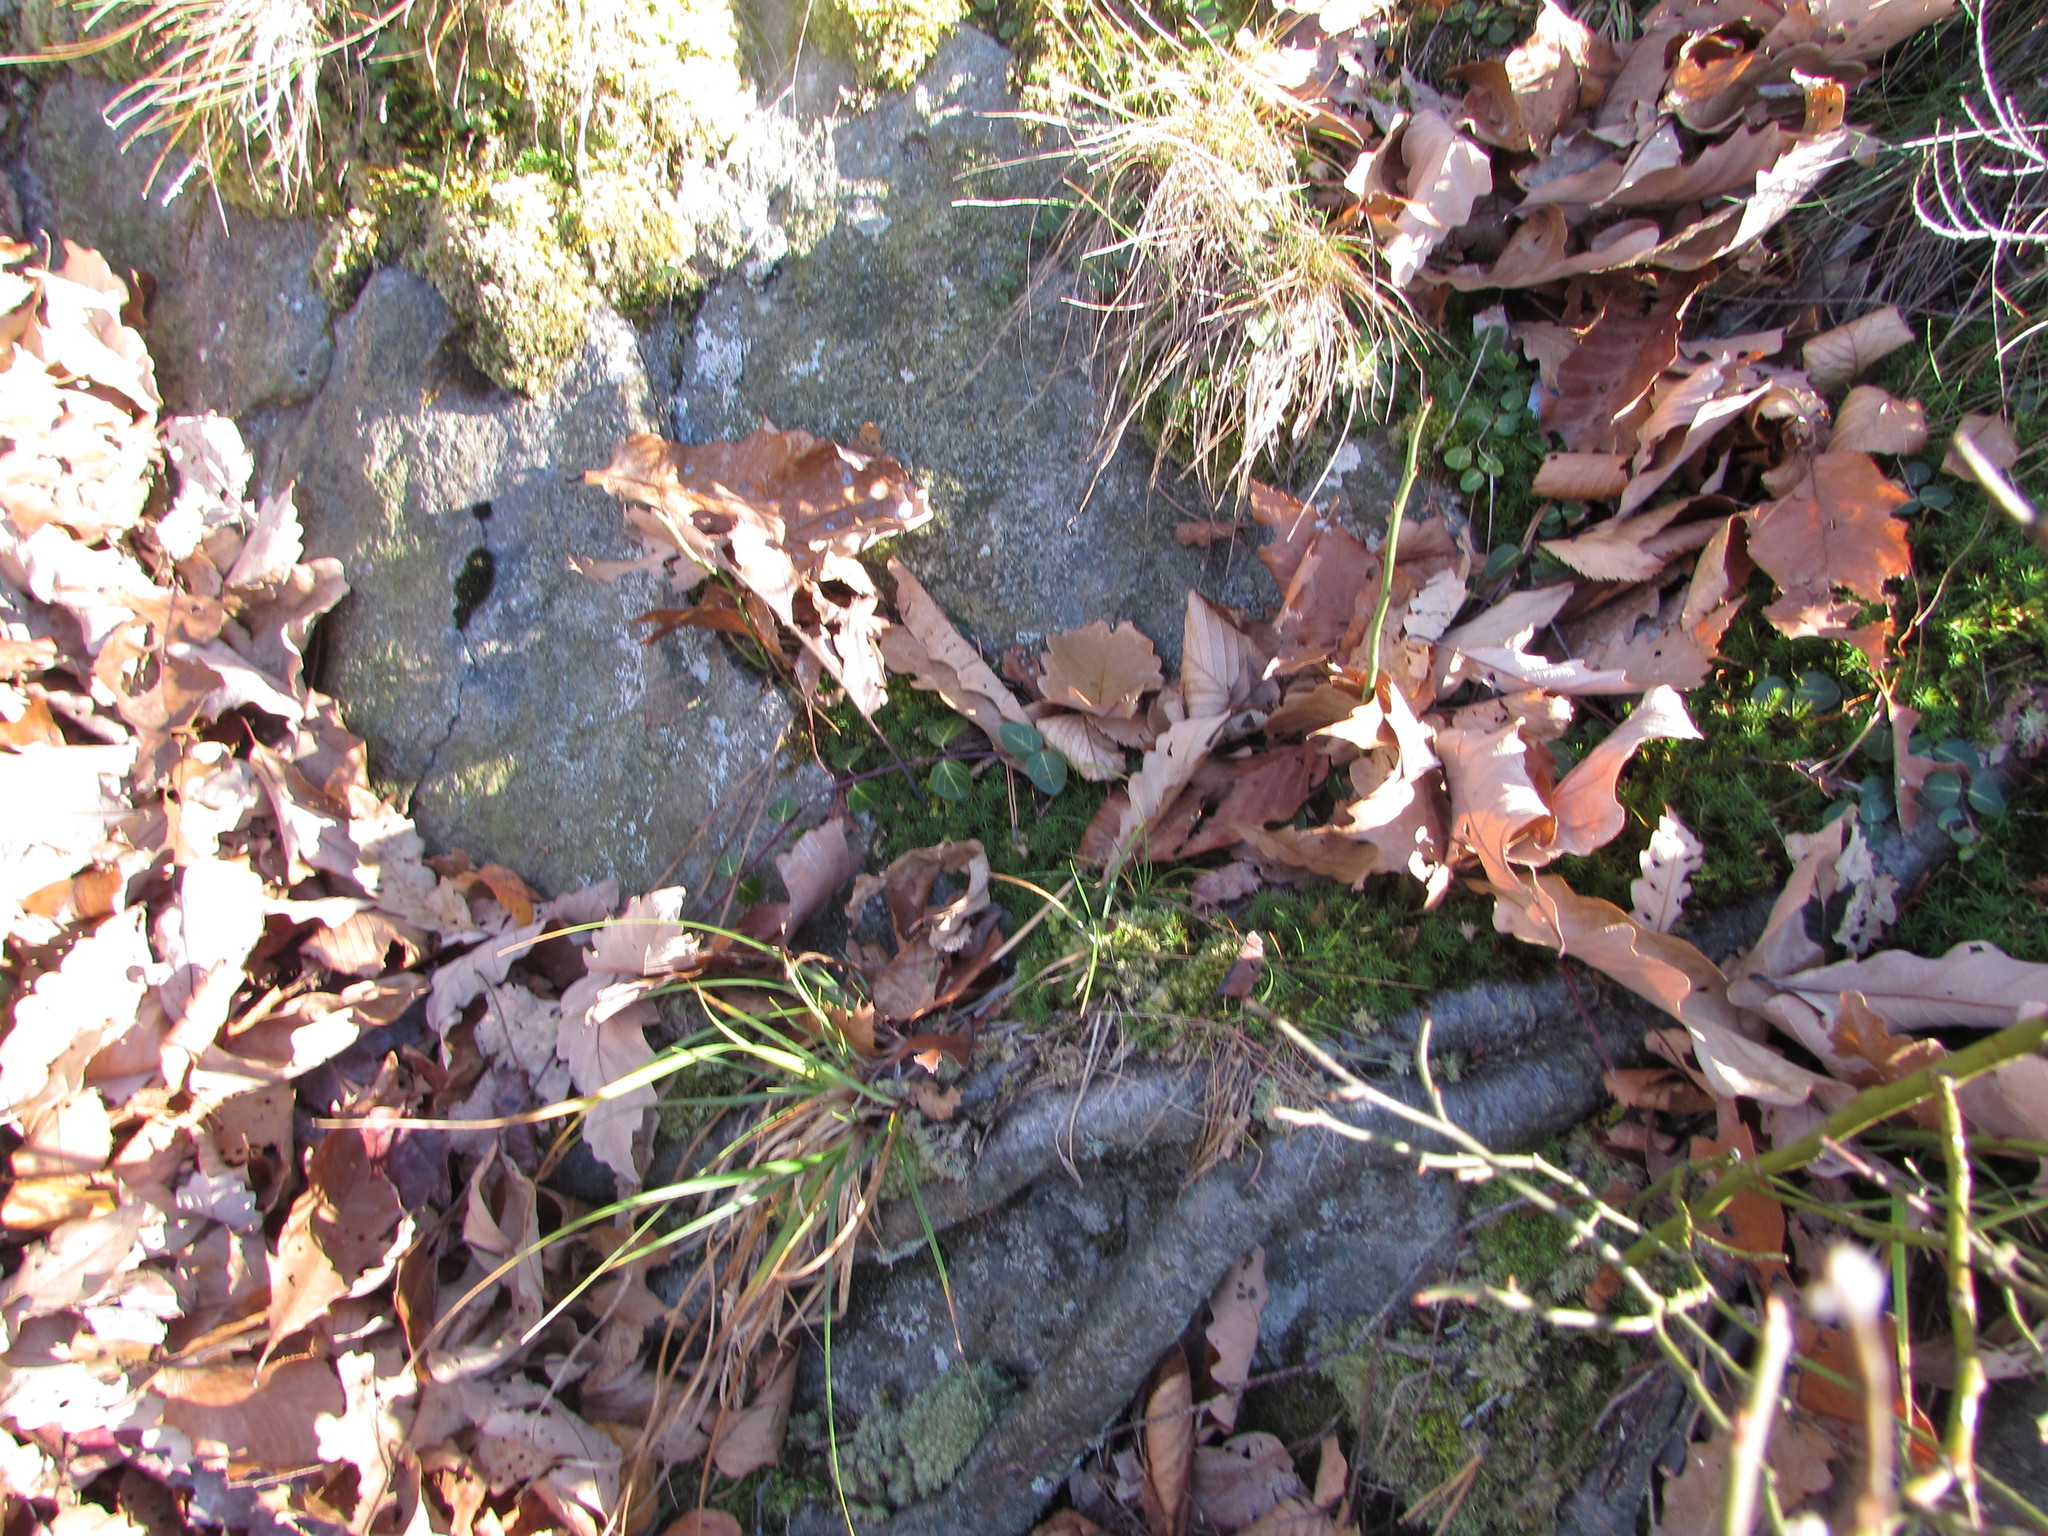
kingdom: Plantae
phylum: Tracheophyta
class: Magnoliopsida
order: Gentianales
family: Rubiaceae
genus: Mitchella
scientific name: Mitchella repens
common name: Partridge-berry
